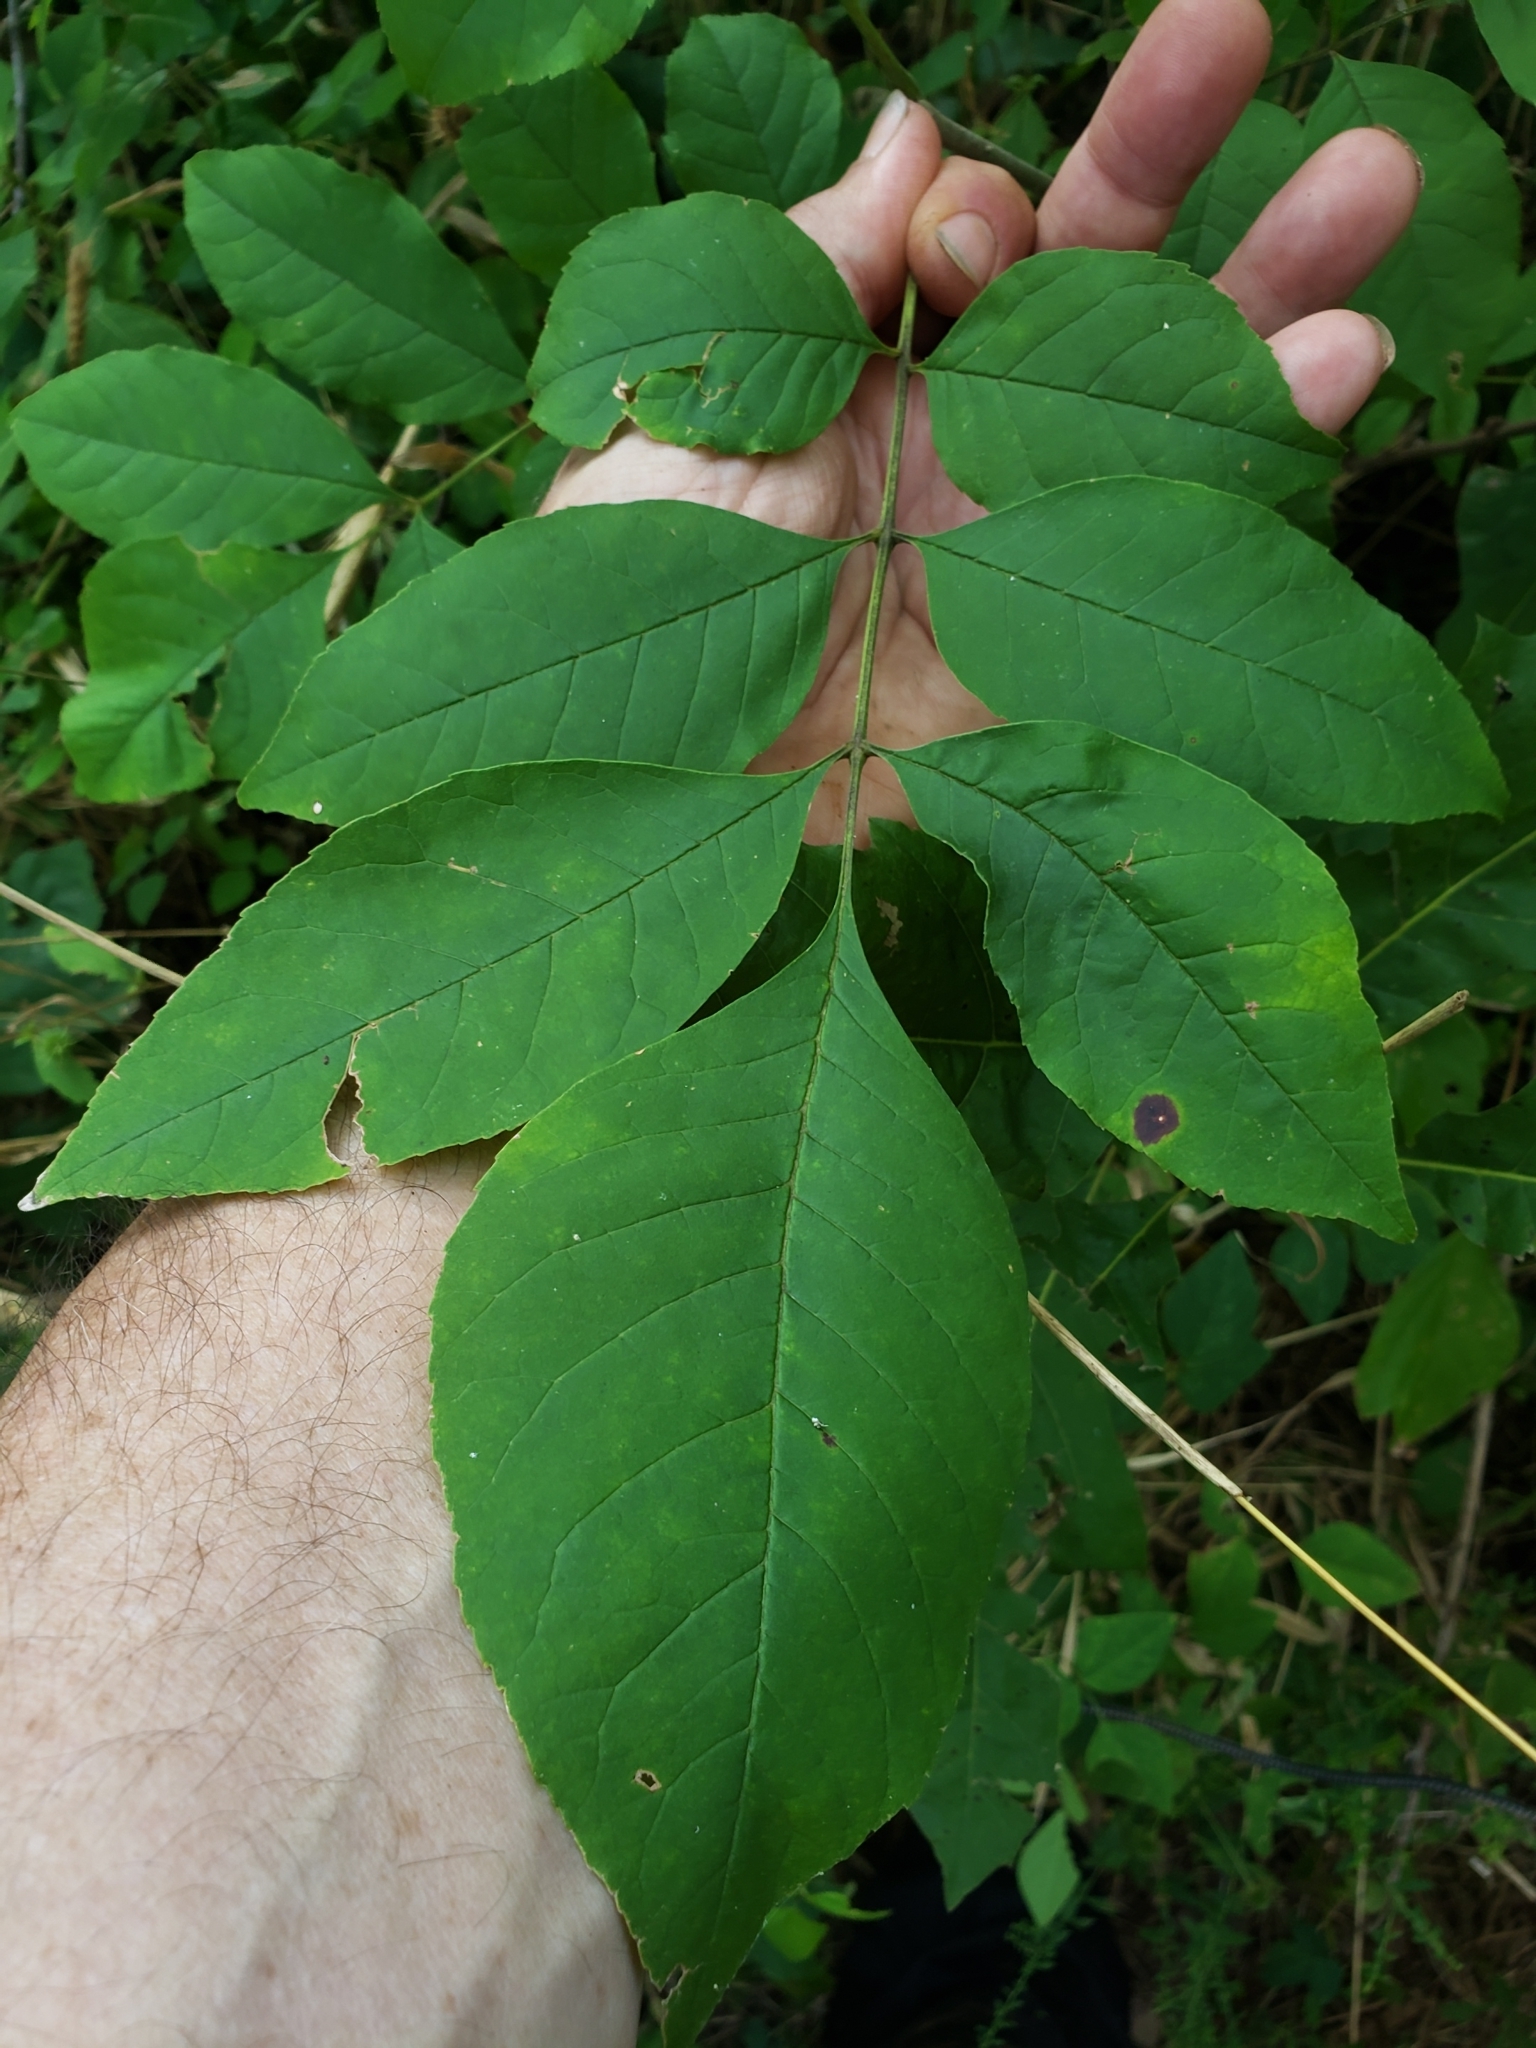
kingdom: Fungi
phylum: Ascomycota
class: Dothideomycetes
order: Mycosphaerellales
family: Mycosphaerellaceae
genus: Mycosphaerella
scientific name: Mycosphaerella fraxinicola
